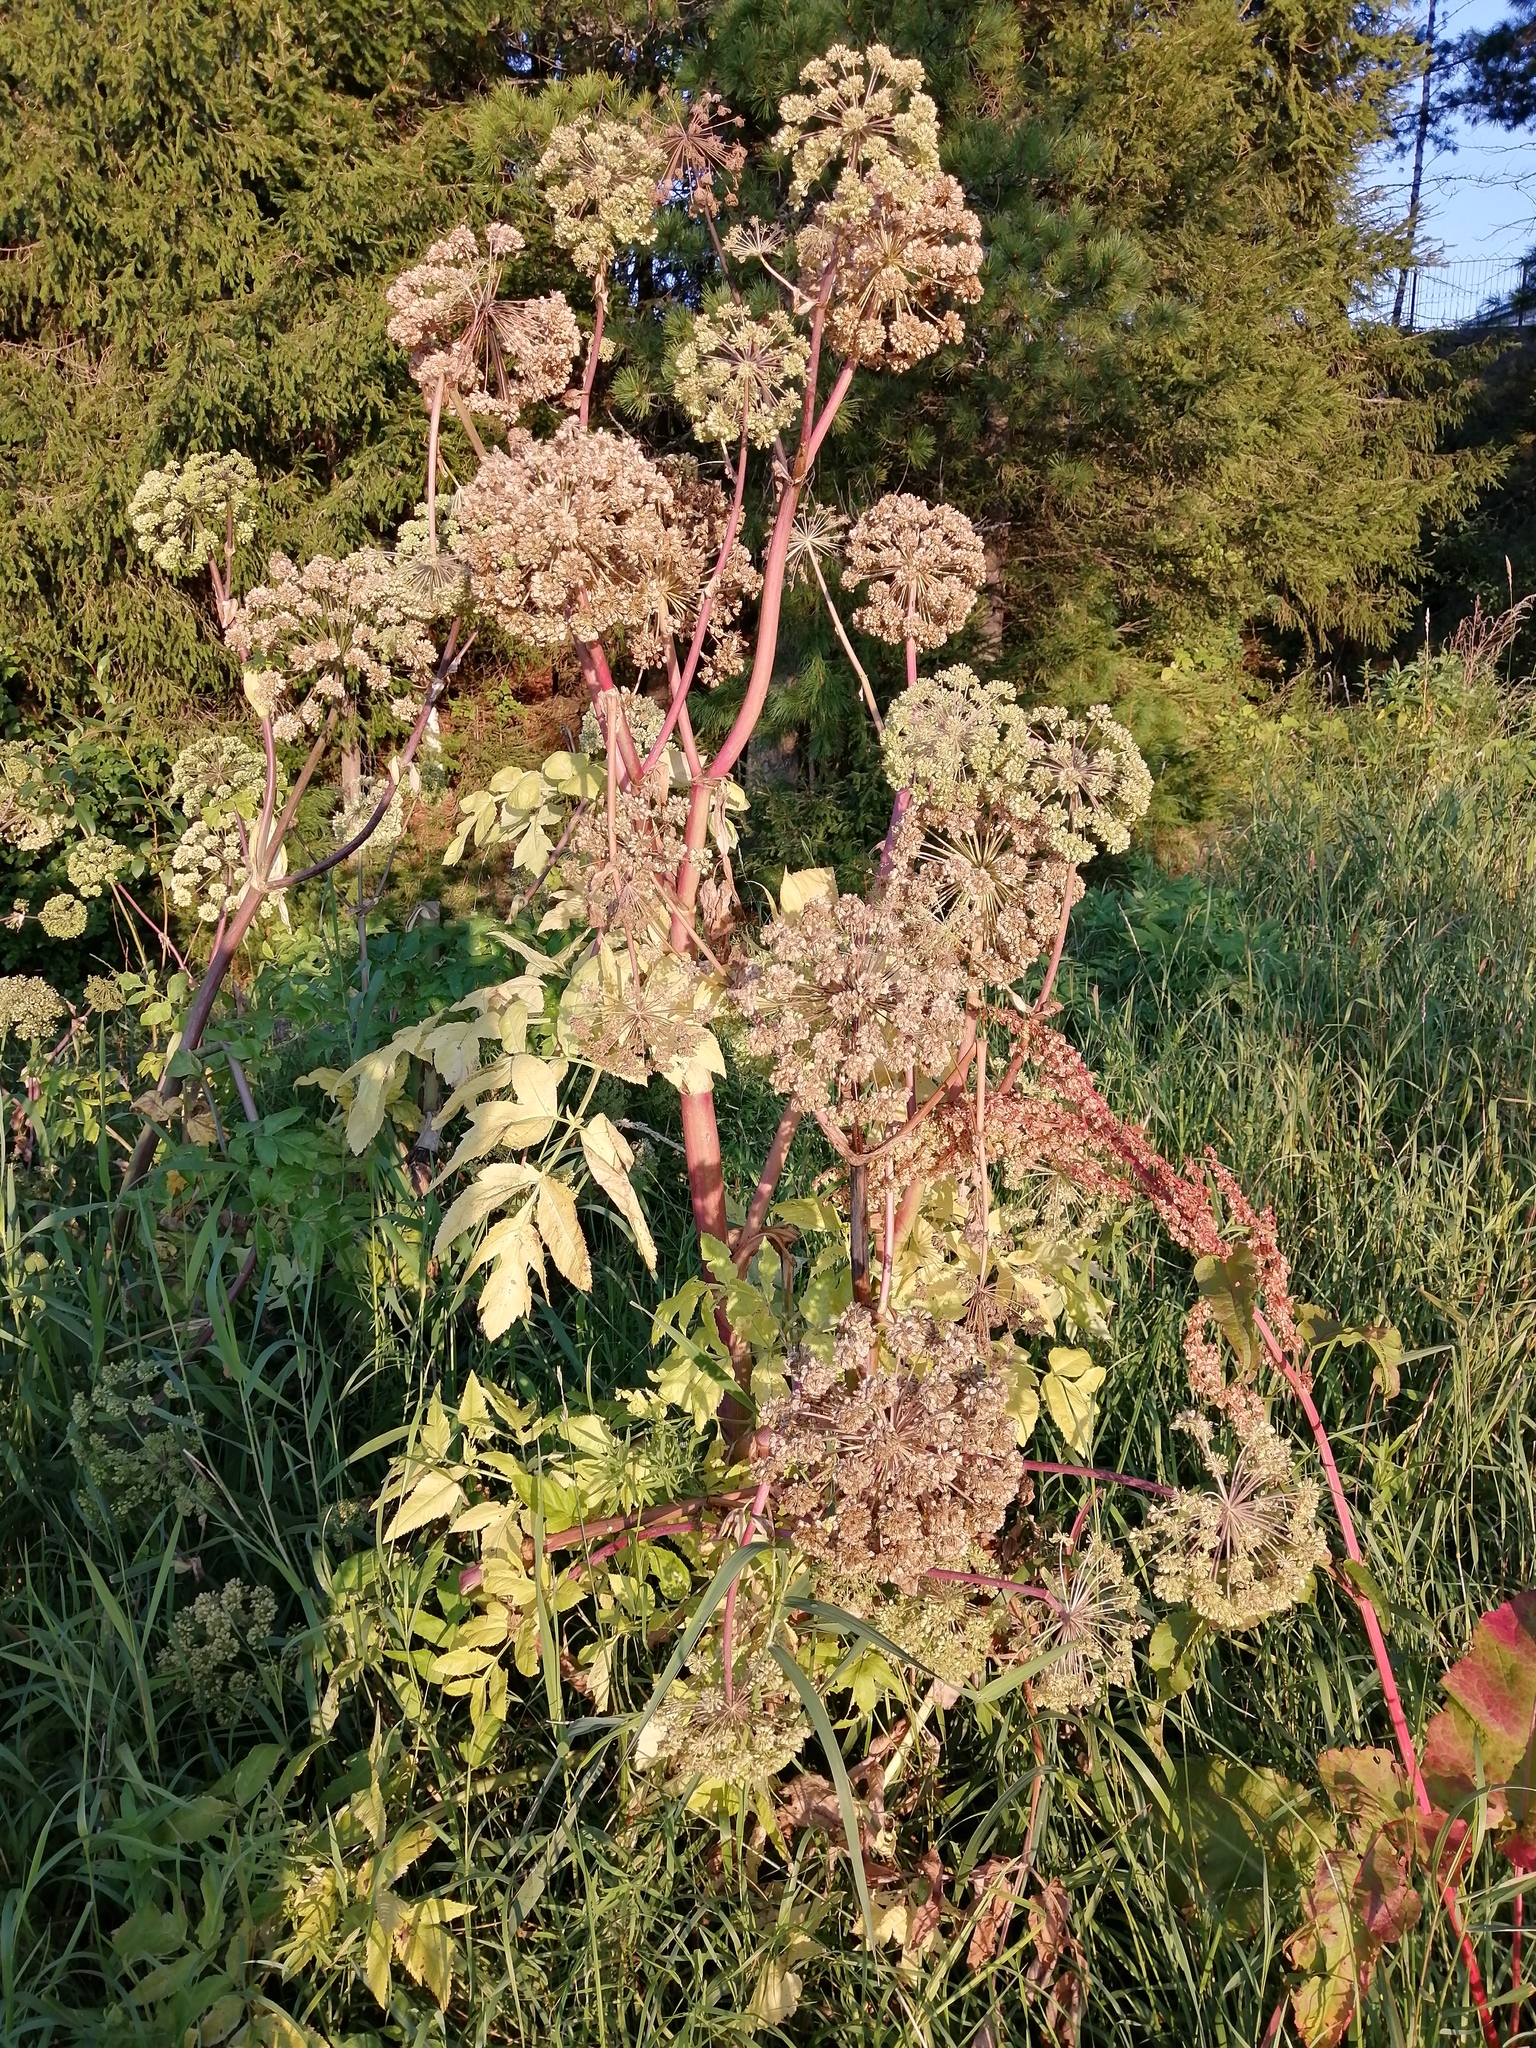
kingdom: Plantae
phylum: Tracheophyta
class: Magnoliopsida
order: Apiales
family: Apiaceae
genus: Angelica
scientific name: Angelica decurrens
